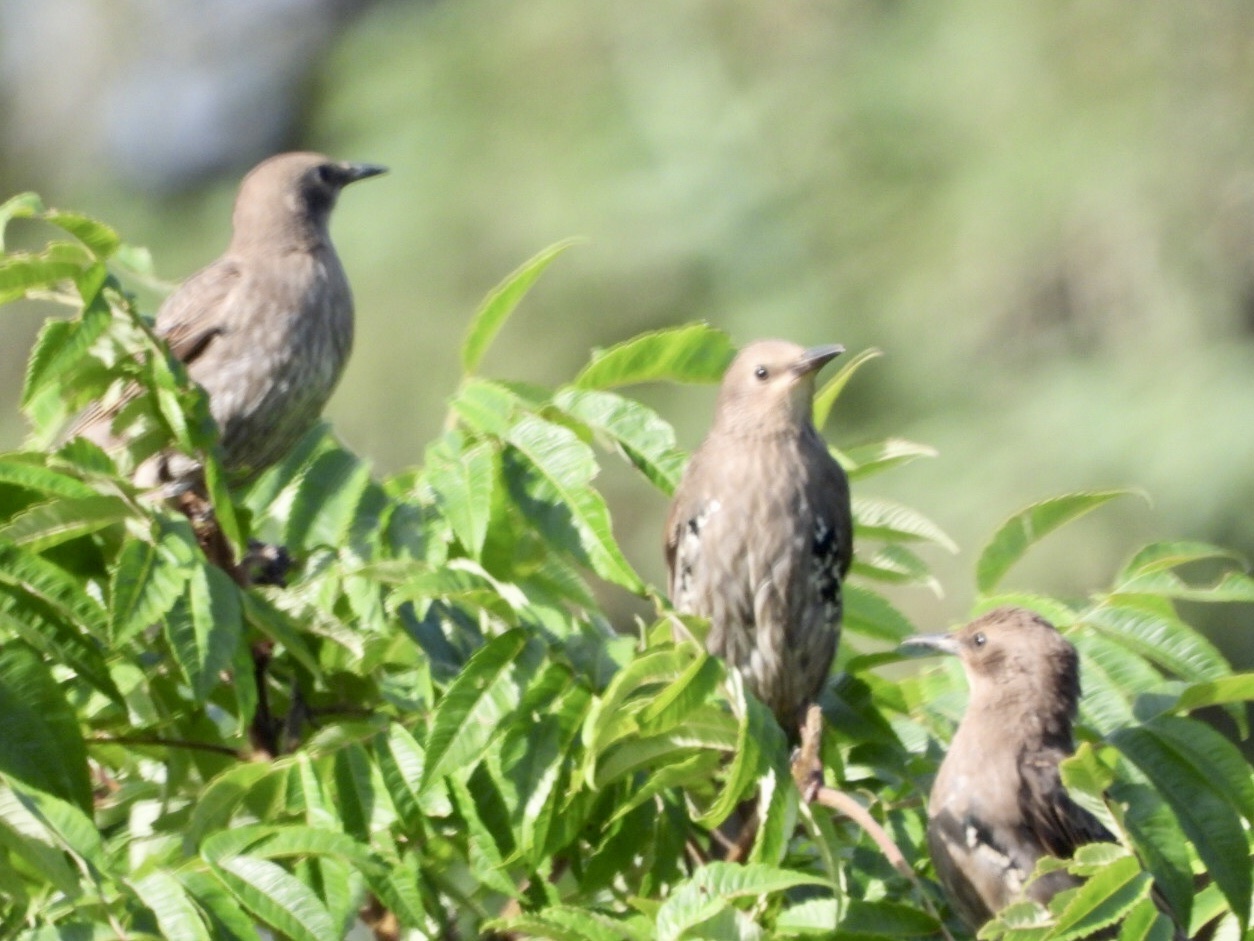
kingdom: Animalia
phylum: Chordata
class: Aves
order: Passeriformes
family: Sturnidae
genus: Sturnus
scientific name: Sturnus vulgaris
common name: Common starling
